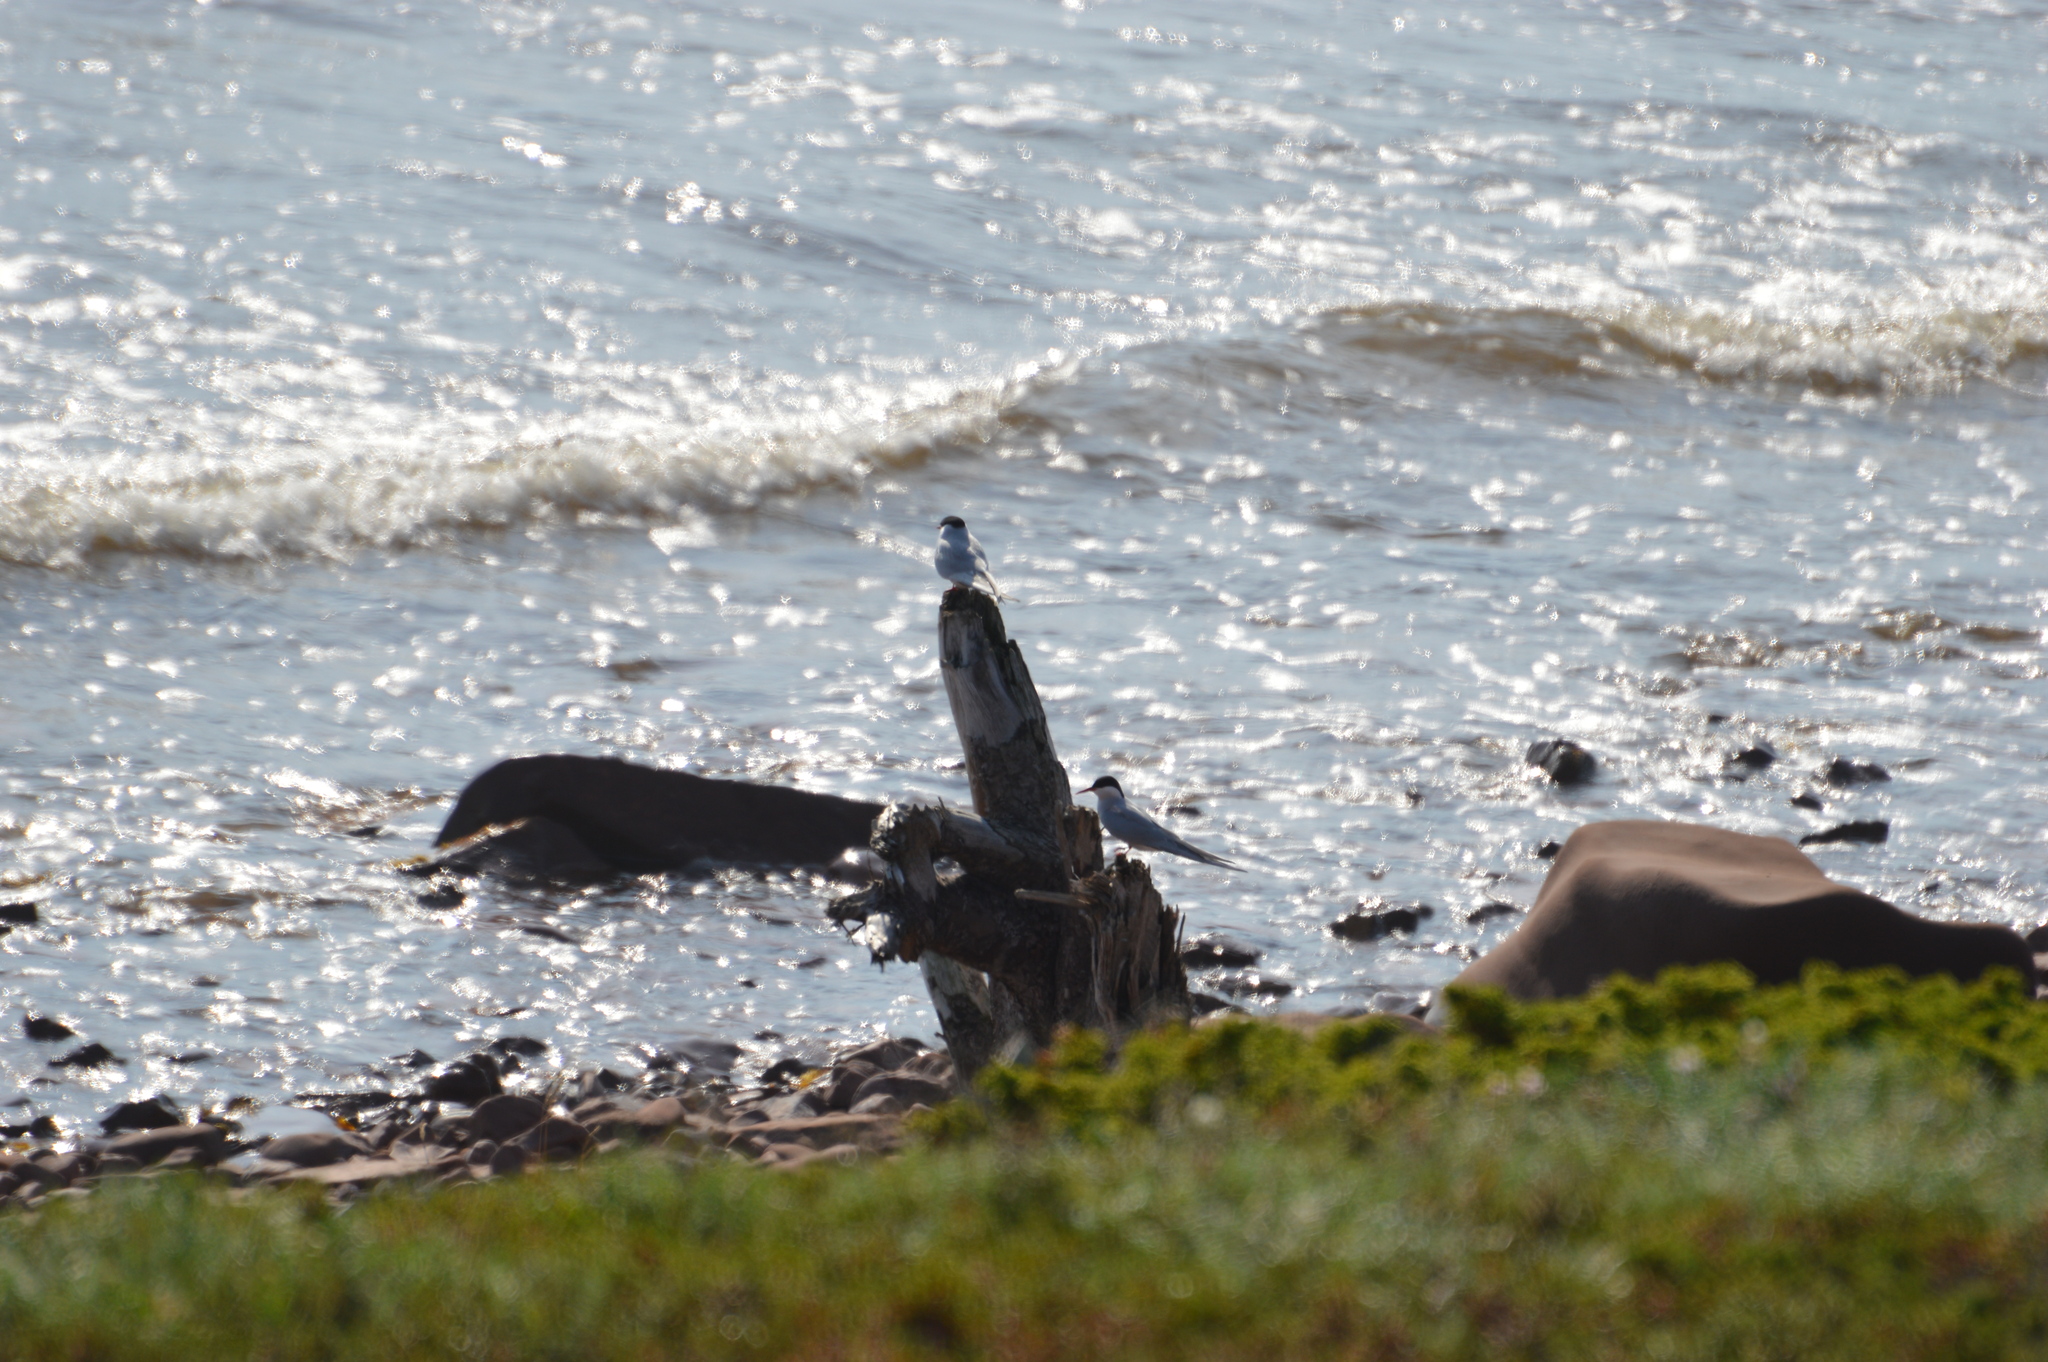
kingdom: Animalia
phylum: Chordata
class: Aves
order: Charadriiformes
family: Laridae
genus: Sterna
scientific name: Sterna paradisaea
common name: Arctic tern
